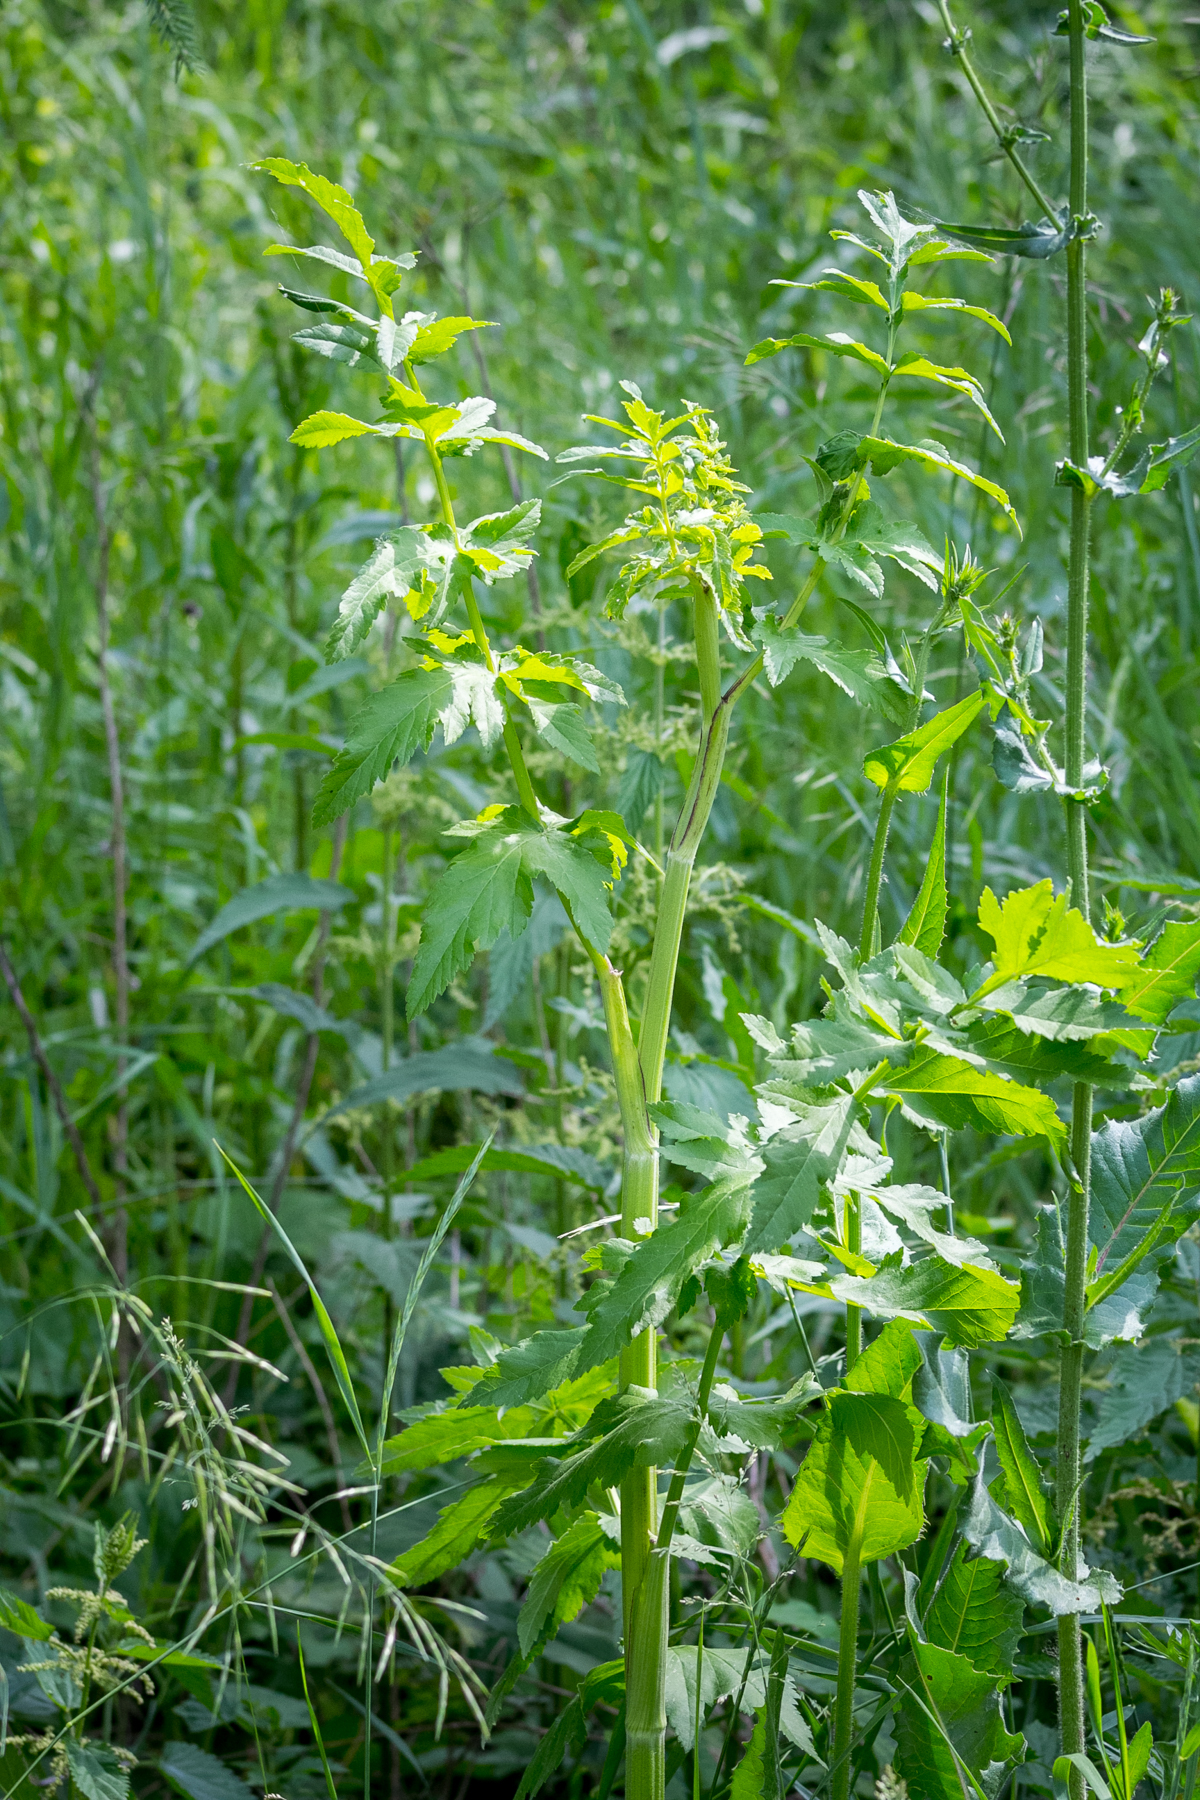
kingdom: Plantae
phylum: Tracheophyta
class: Magnoliopsida
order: Apiales
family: Apiaceae
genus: Pastinaca
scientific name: Pastinaca sativa
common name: Wild parsnip
